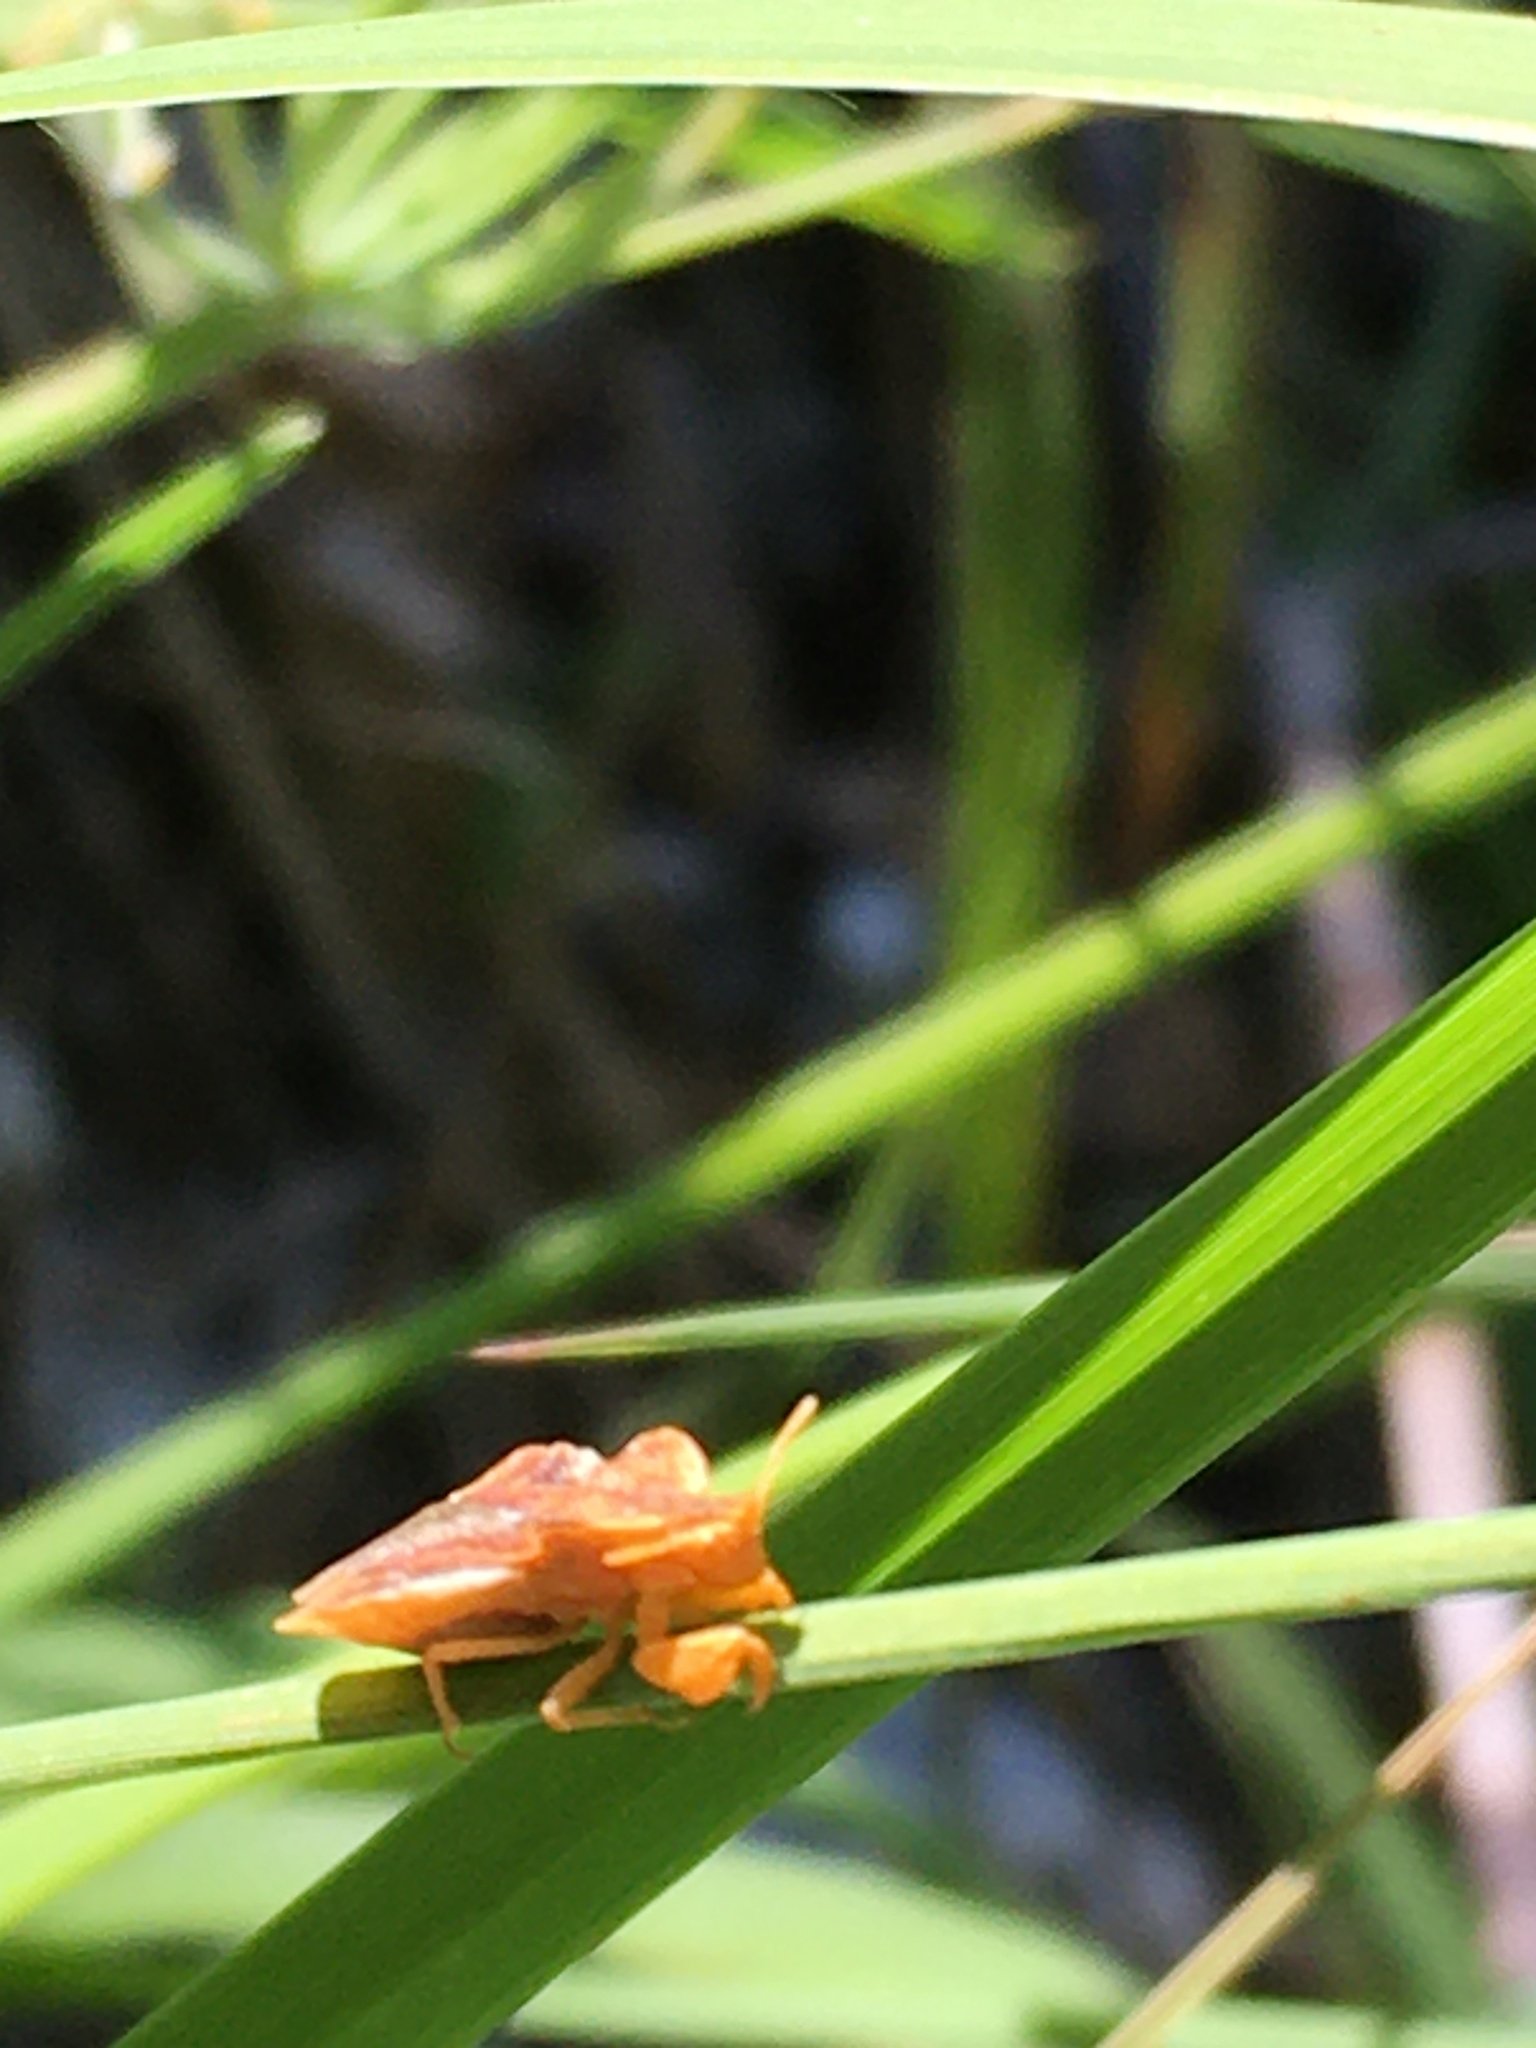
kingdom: Animalia
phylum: Arthropoda
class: Insecta
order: Hemiptera
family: Reduviidae
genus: Phymata
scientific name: Phymata crassipes
